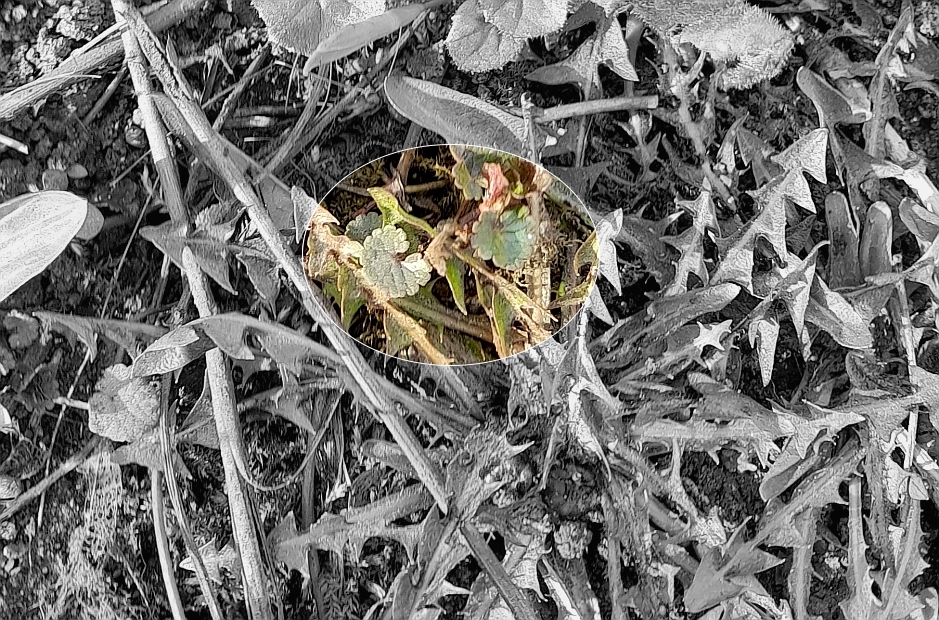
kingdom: Plantae
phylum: Tracheophyta
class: Magnoliopsida
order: Lamiales
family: Lamiaceae
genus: Glechoma
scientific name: Glechoma hederacea
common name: Ground ivy
